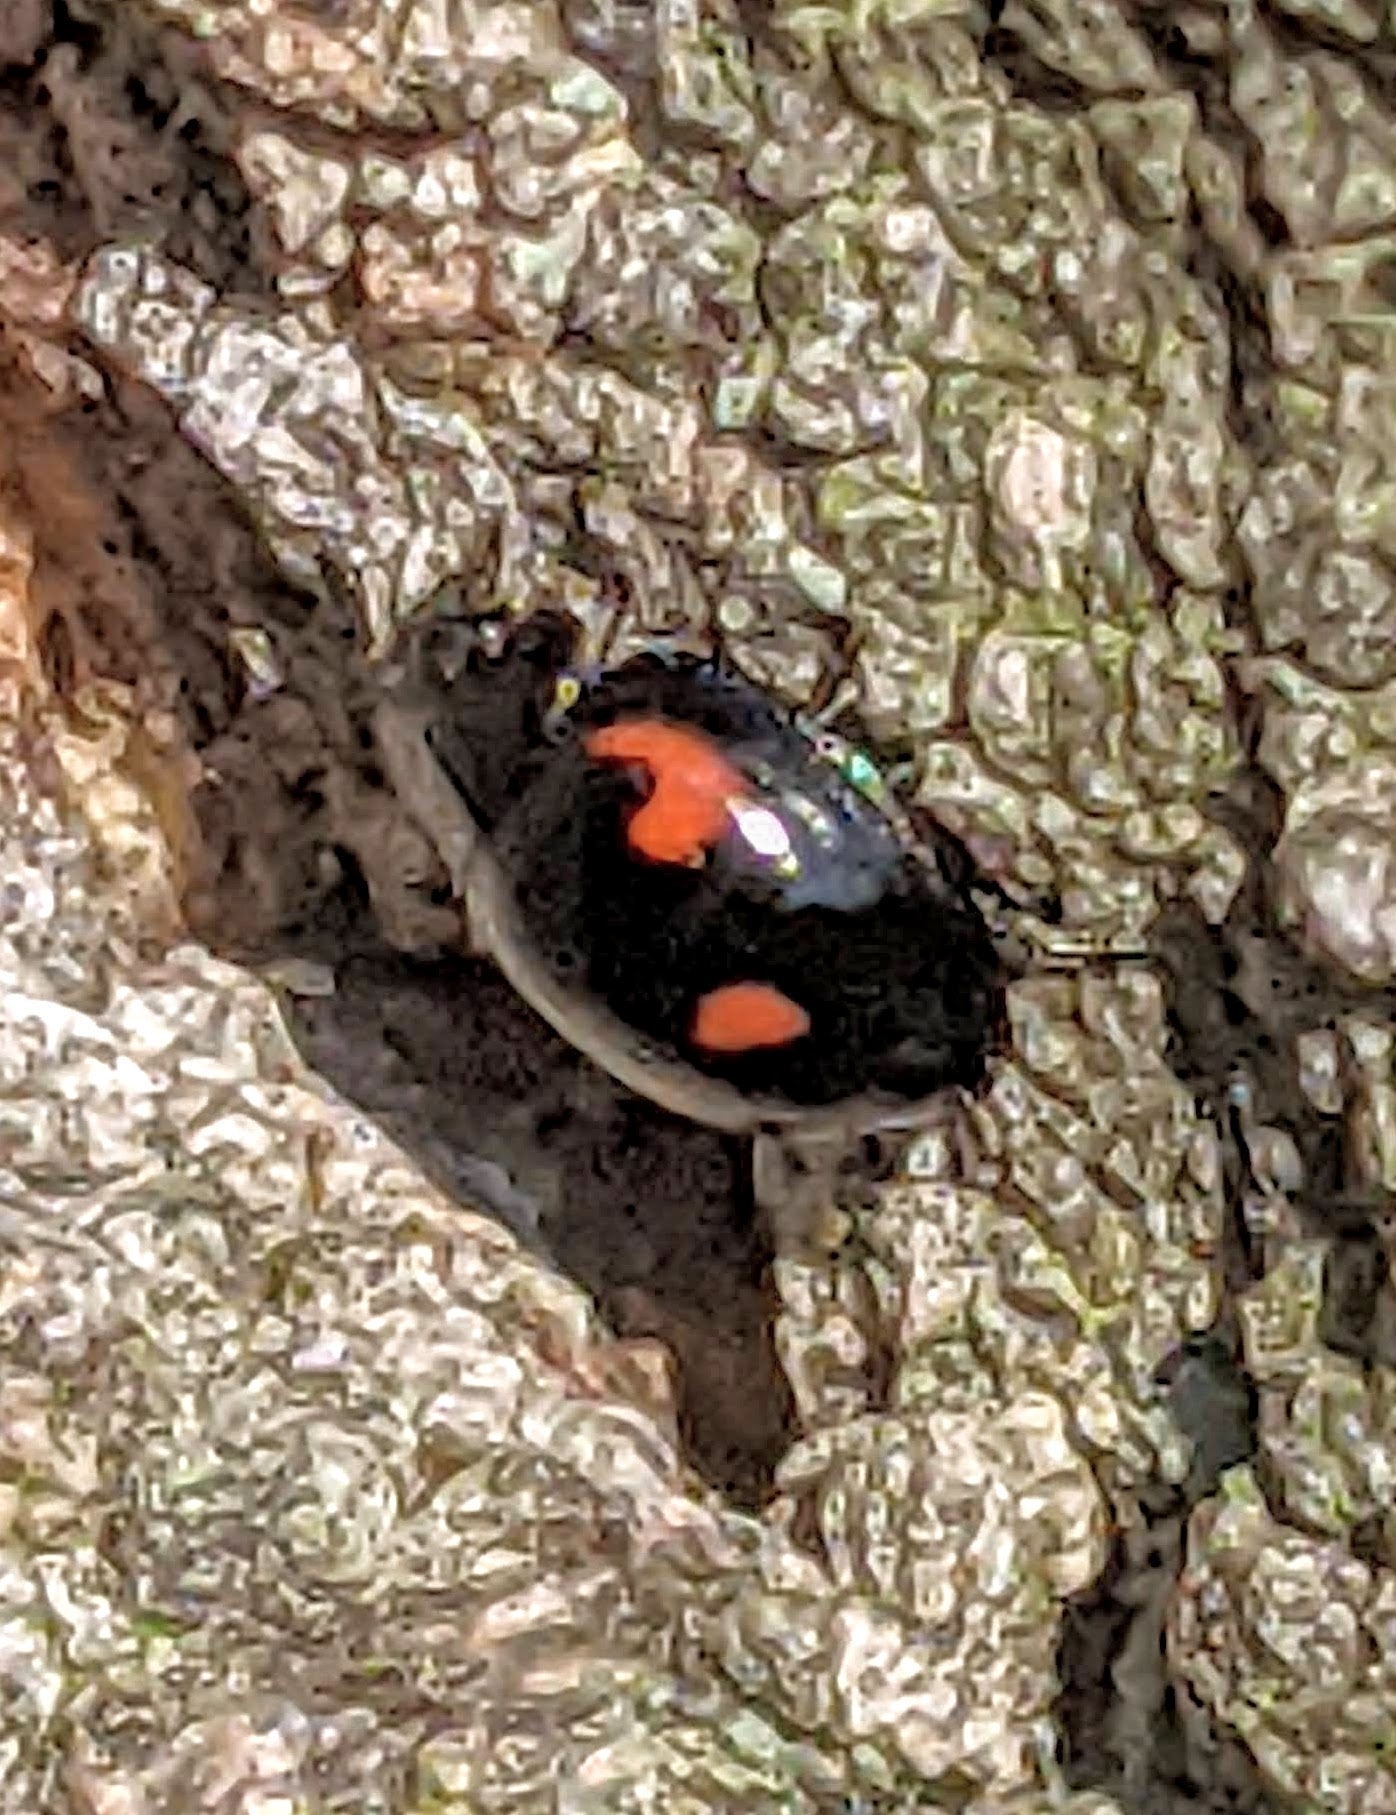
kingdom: Animalia
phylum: Arthropoda
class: Insecta
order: Coleoptera
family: Coccinellidae
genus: Brumus
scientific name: Brumus quadripustulatus
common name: Ladybird beetle
